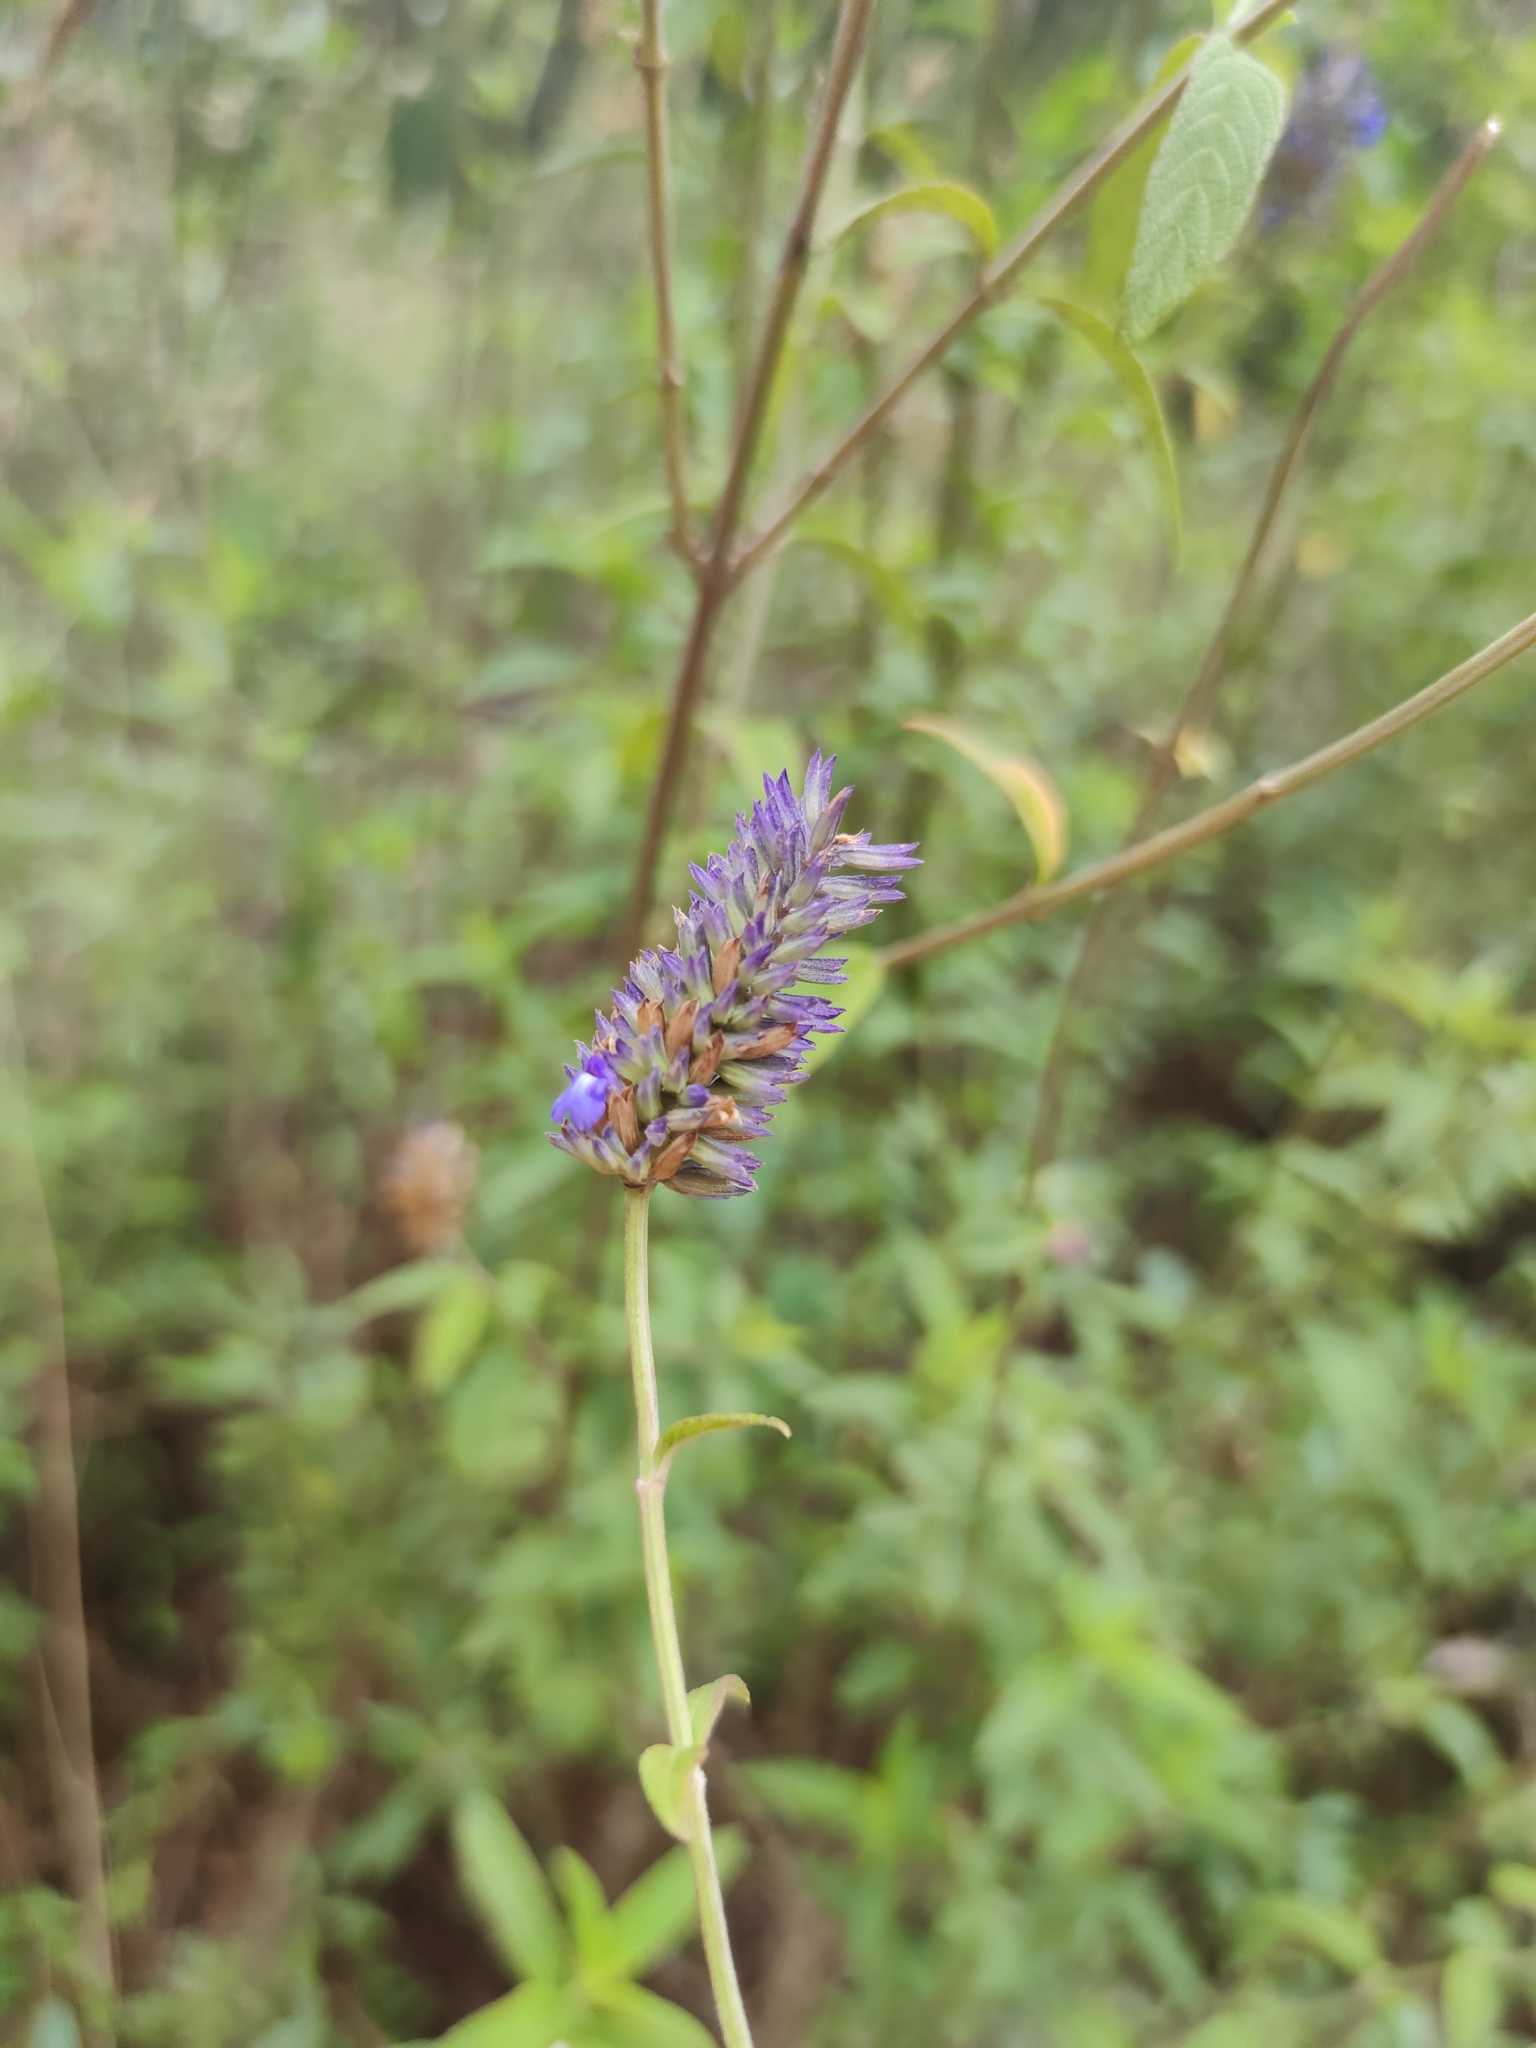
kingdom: Plantae
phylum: Tracheophyta
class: Magnoliopsida
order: Lamiales
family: Lamiaceae
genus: Salvia
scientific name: Salvia lavanduloides
